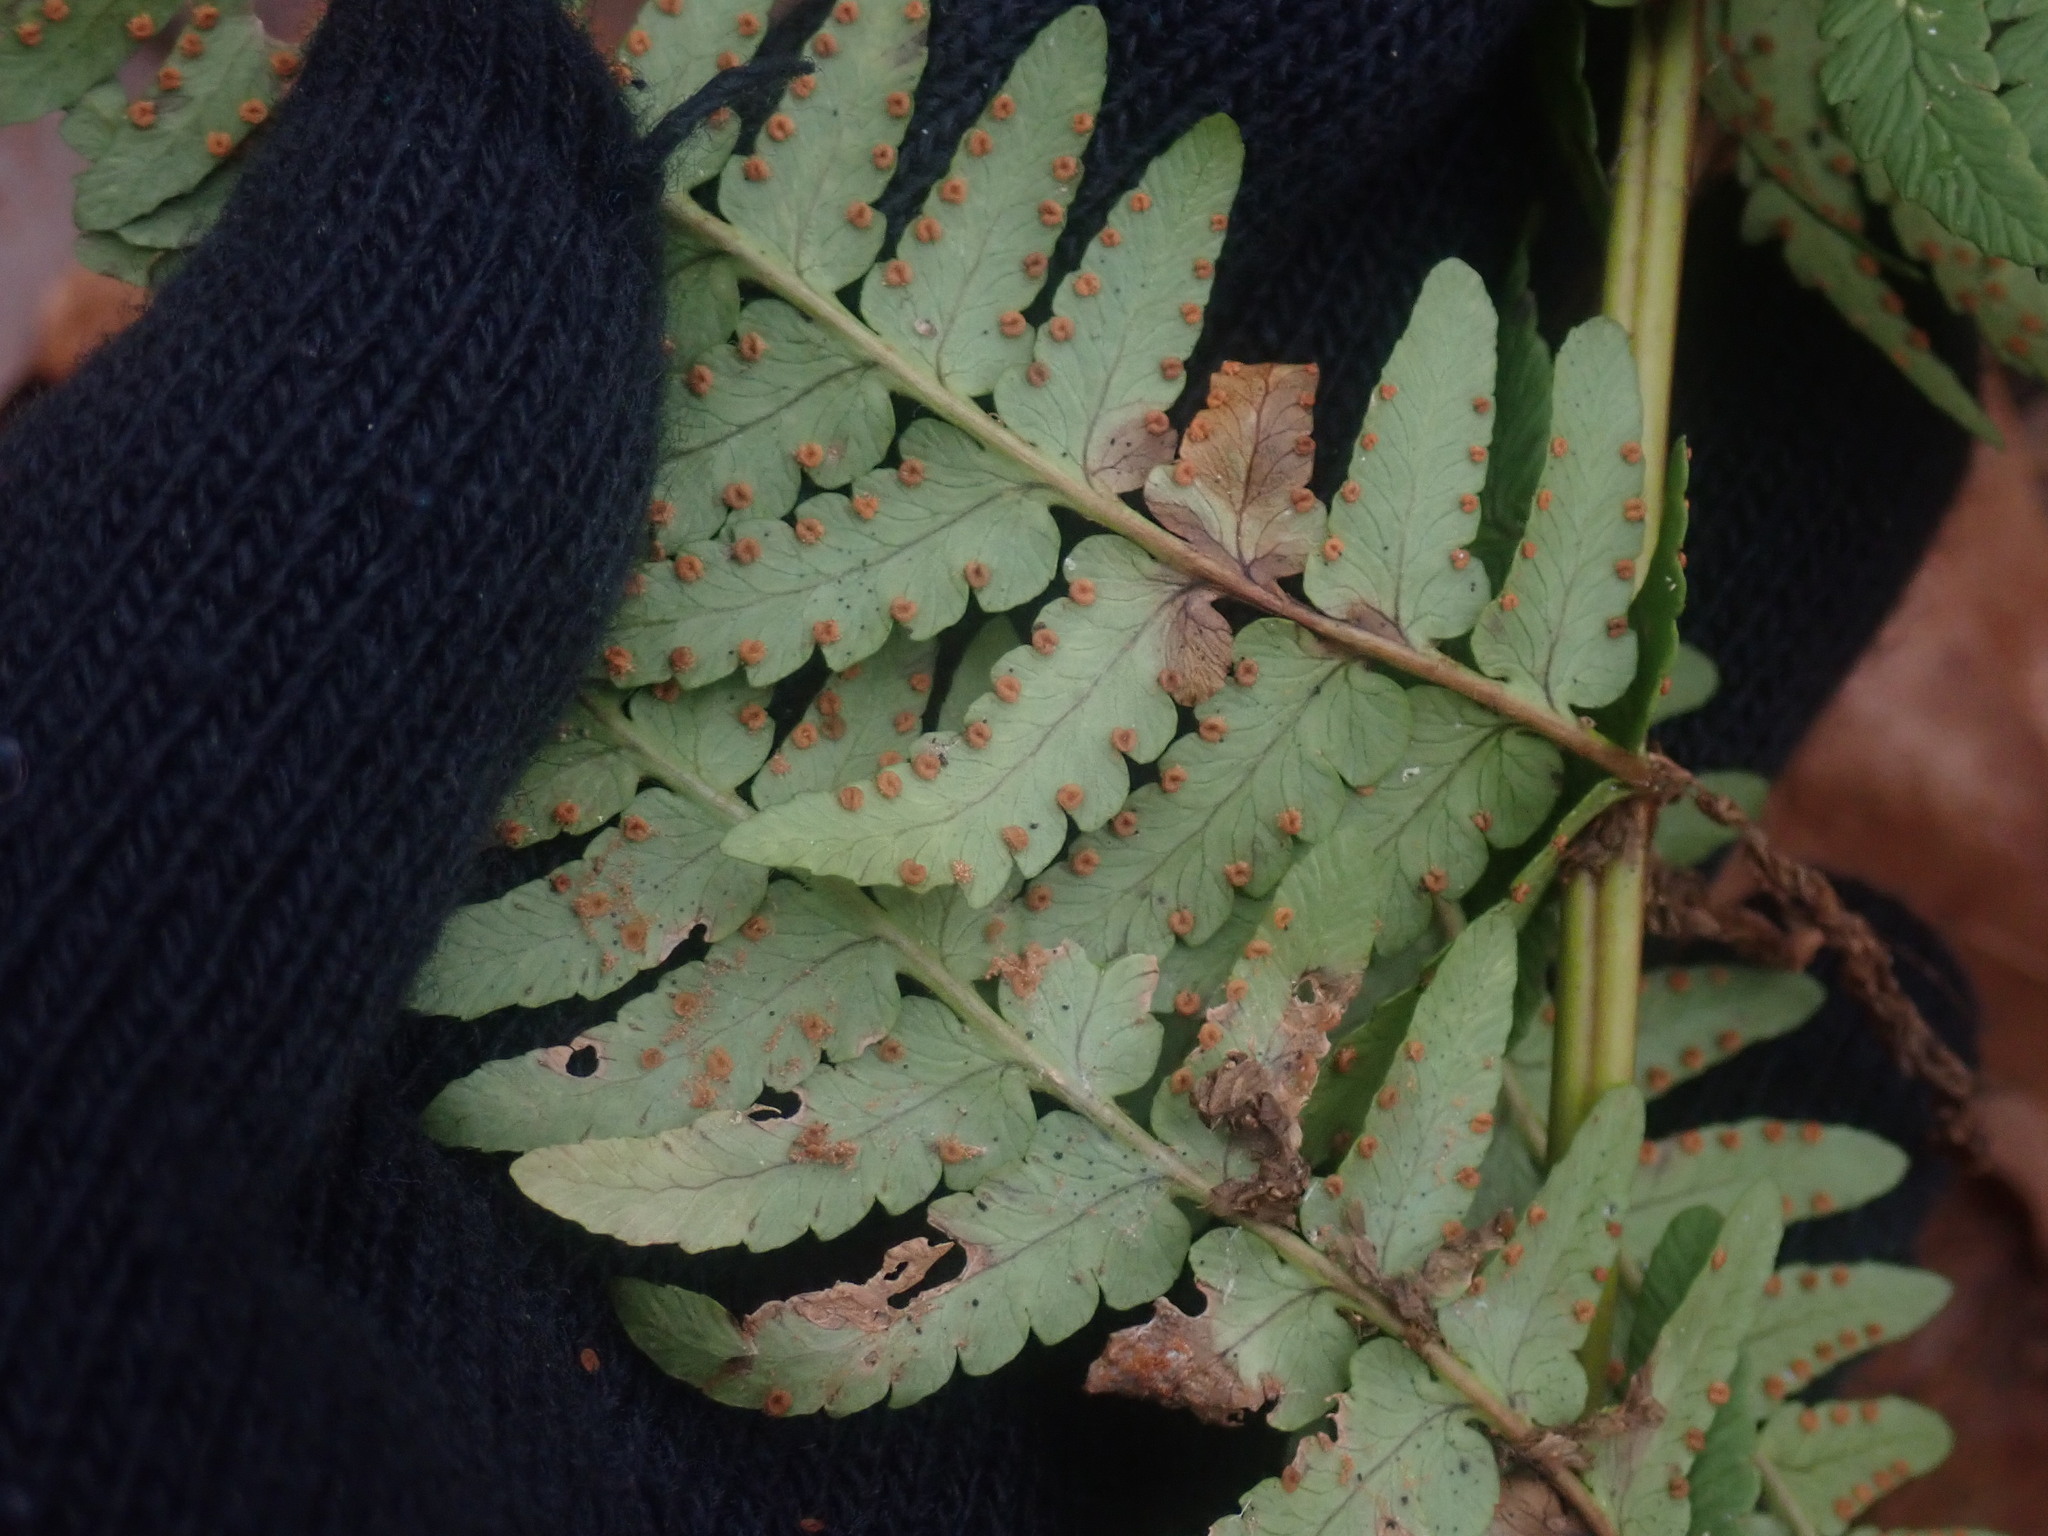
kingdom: Plantae
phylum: Tracheophyta
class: Polypodiopsida
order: Polypodiales
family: Dryopteridaceae
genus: Dryopteris
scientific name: Dryopteris marginalis
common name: Marginal wood fern
